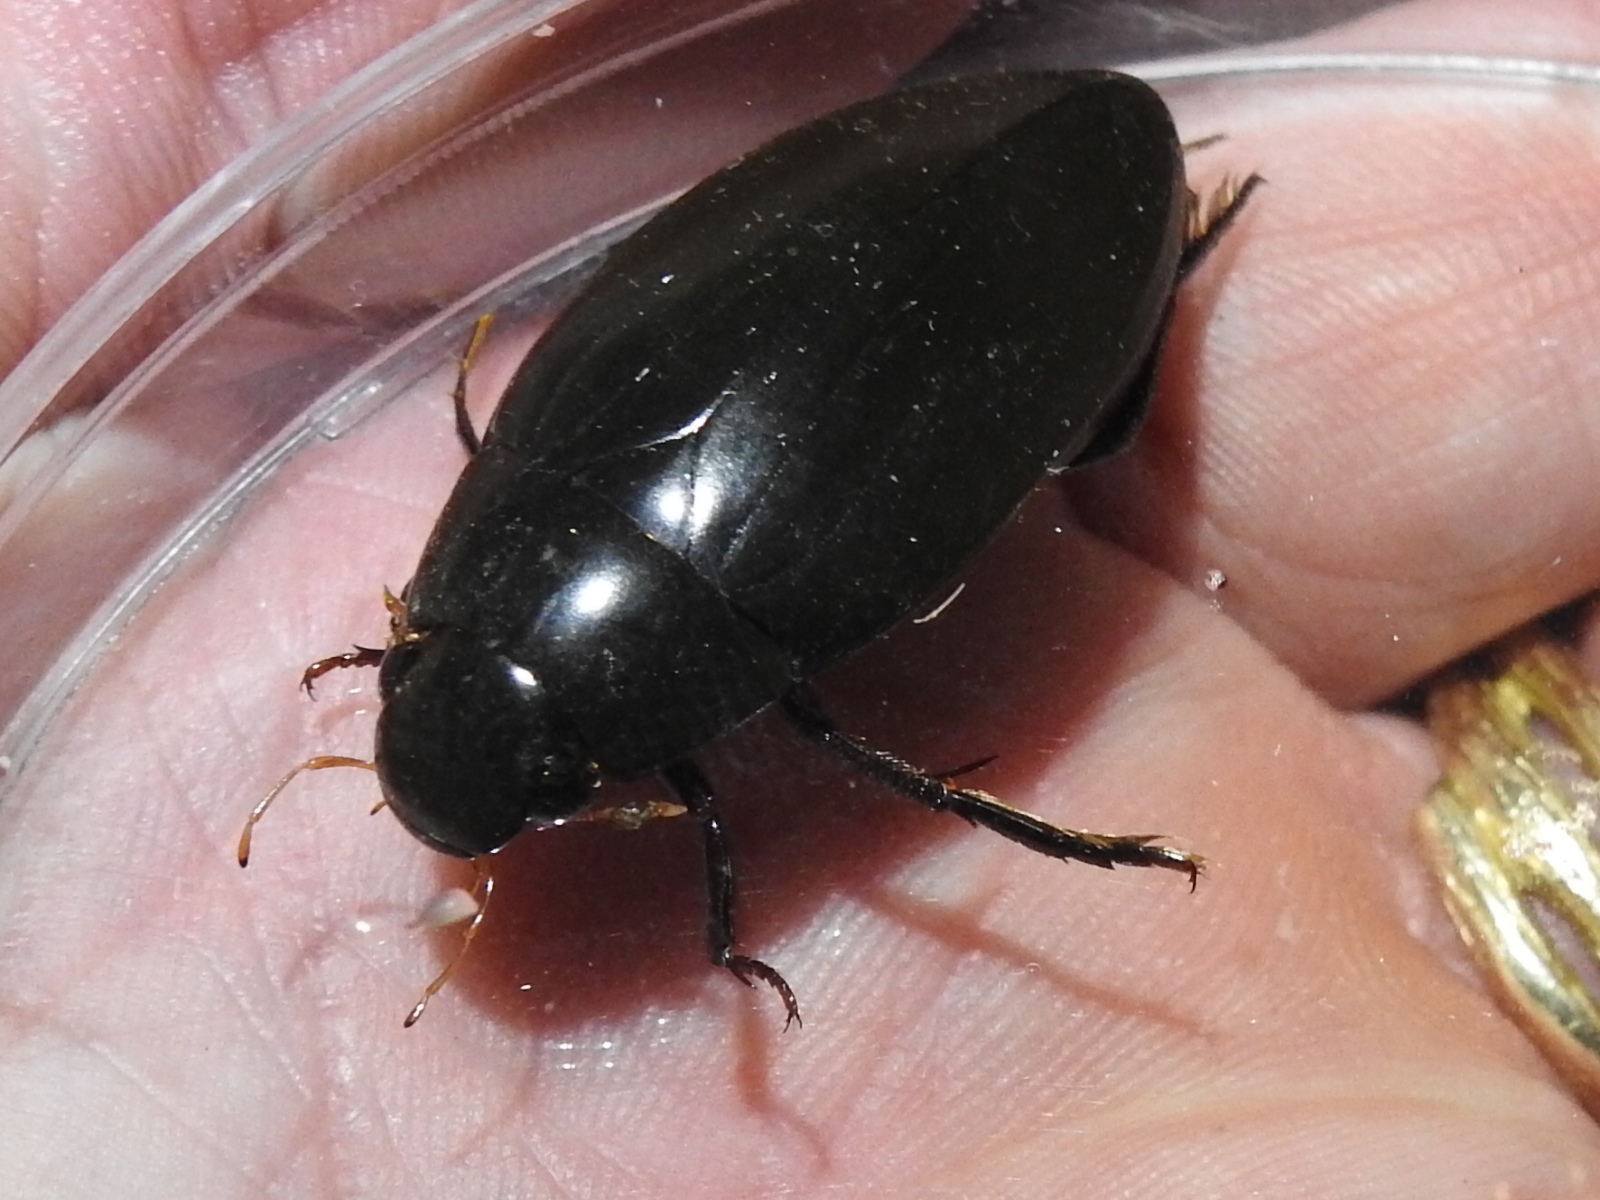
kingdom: Animalia
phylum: Arthropoda
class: Insecta
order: Coleoptera
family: Hydrophilidae
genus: Hydrophilus
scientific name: Hydrophilus triangularis
